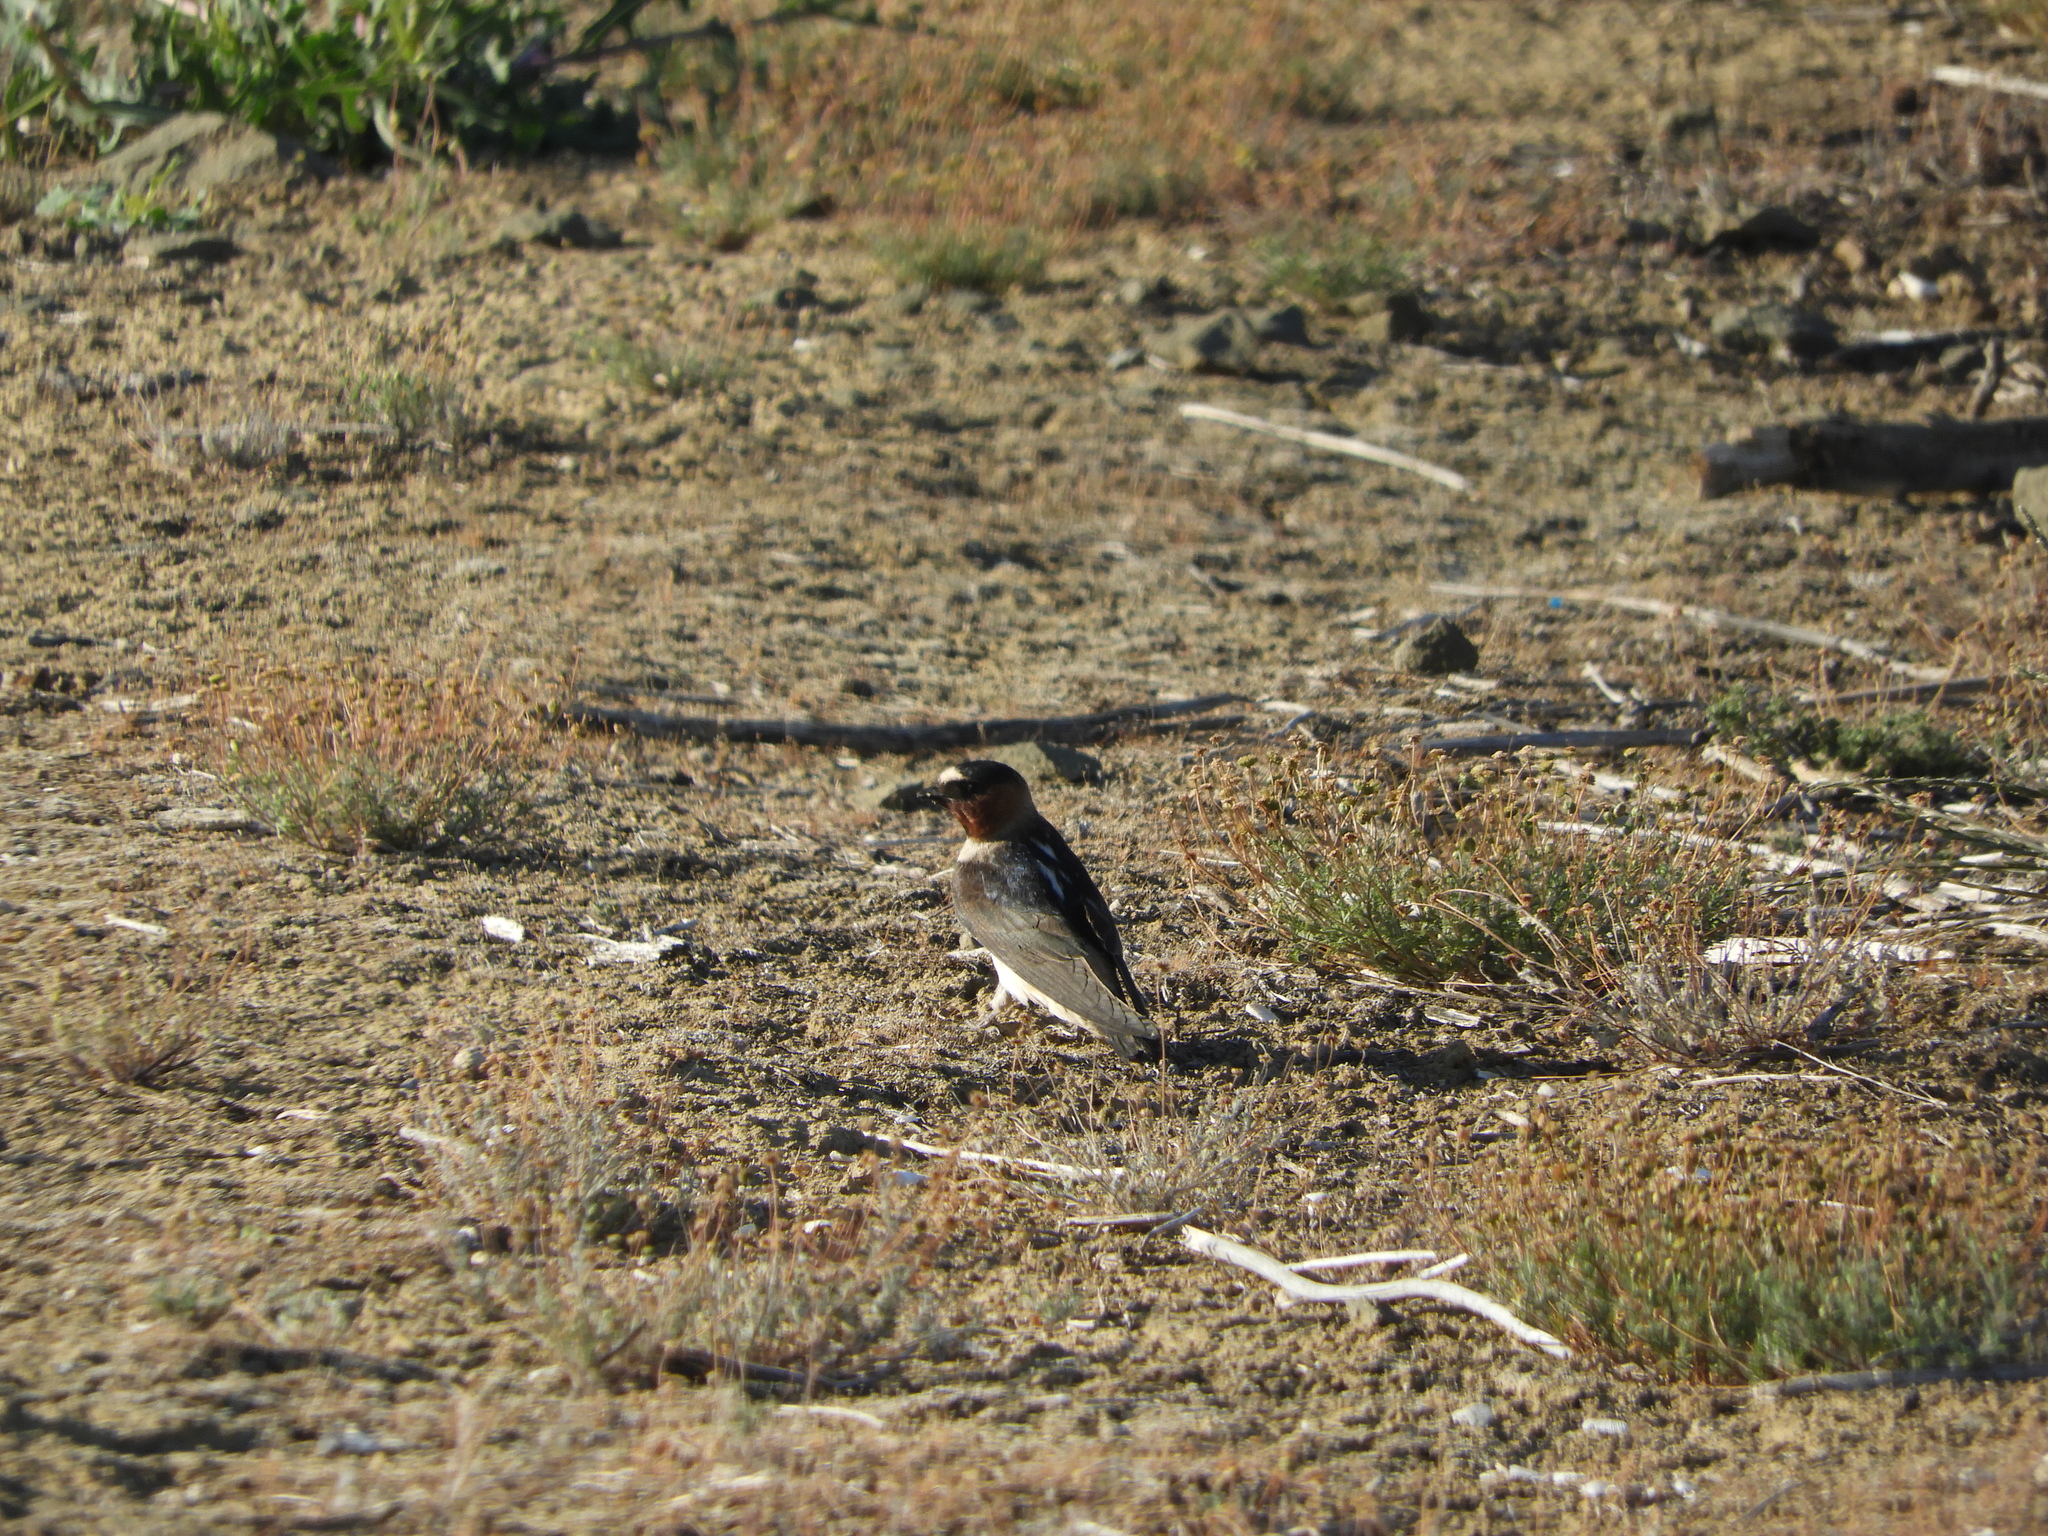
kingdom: Animalia
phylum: Chordata
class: Aves
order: Passeriformes
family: Hirundinidae
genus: Petrochelidon
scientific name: Petrochelidon pyrrhonota
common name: American cliff swallow
